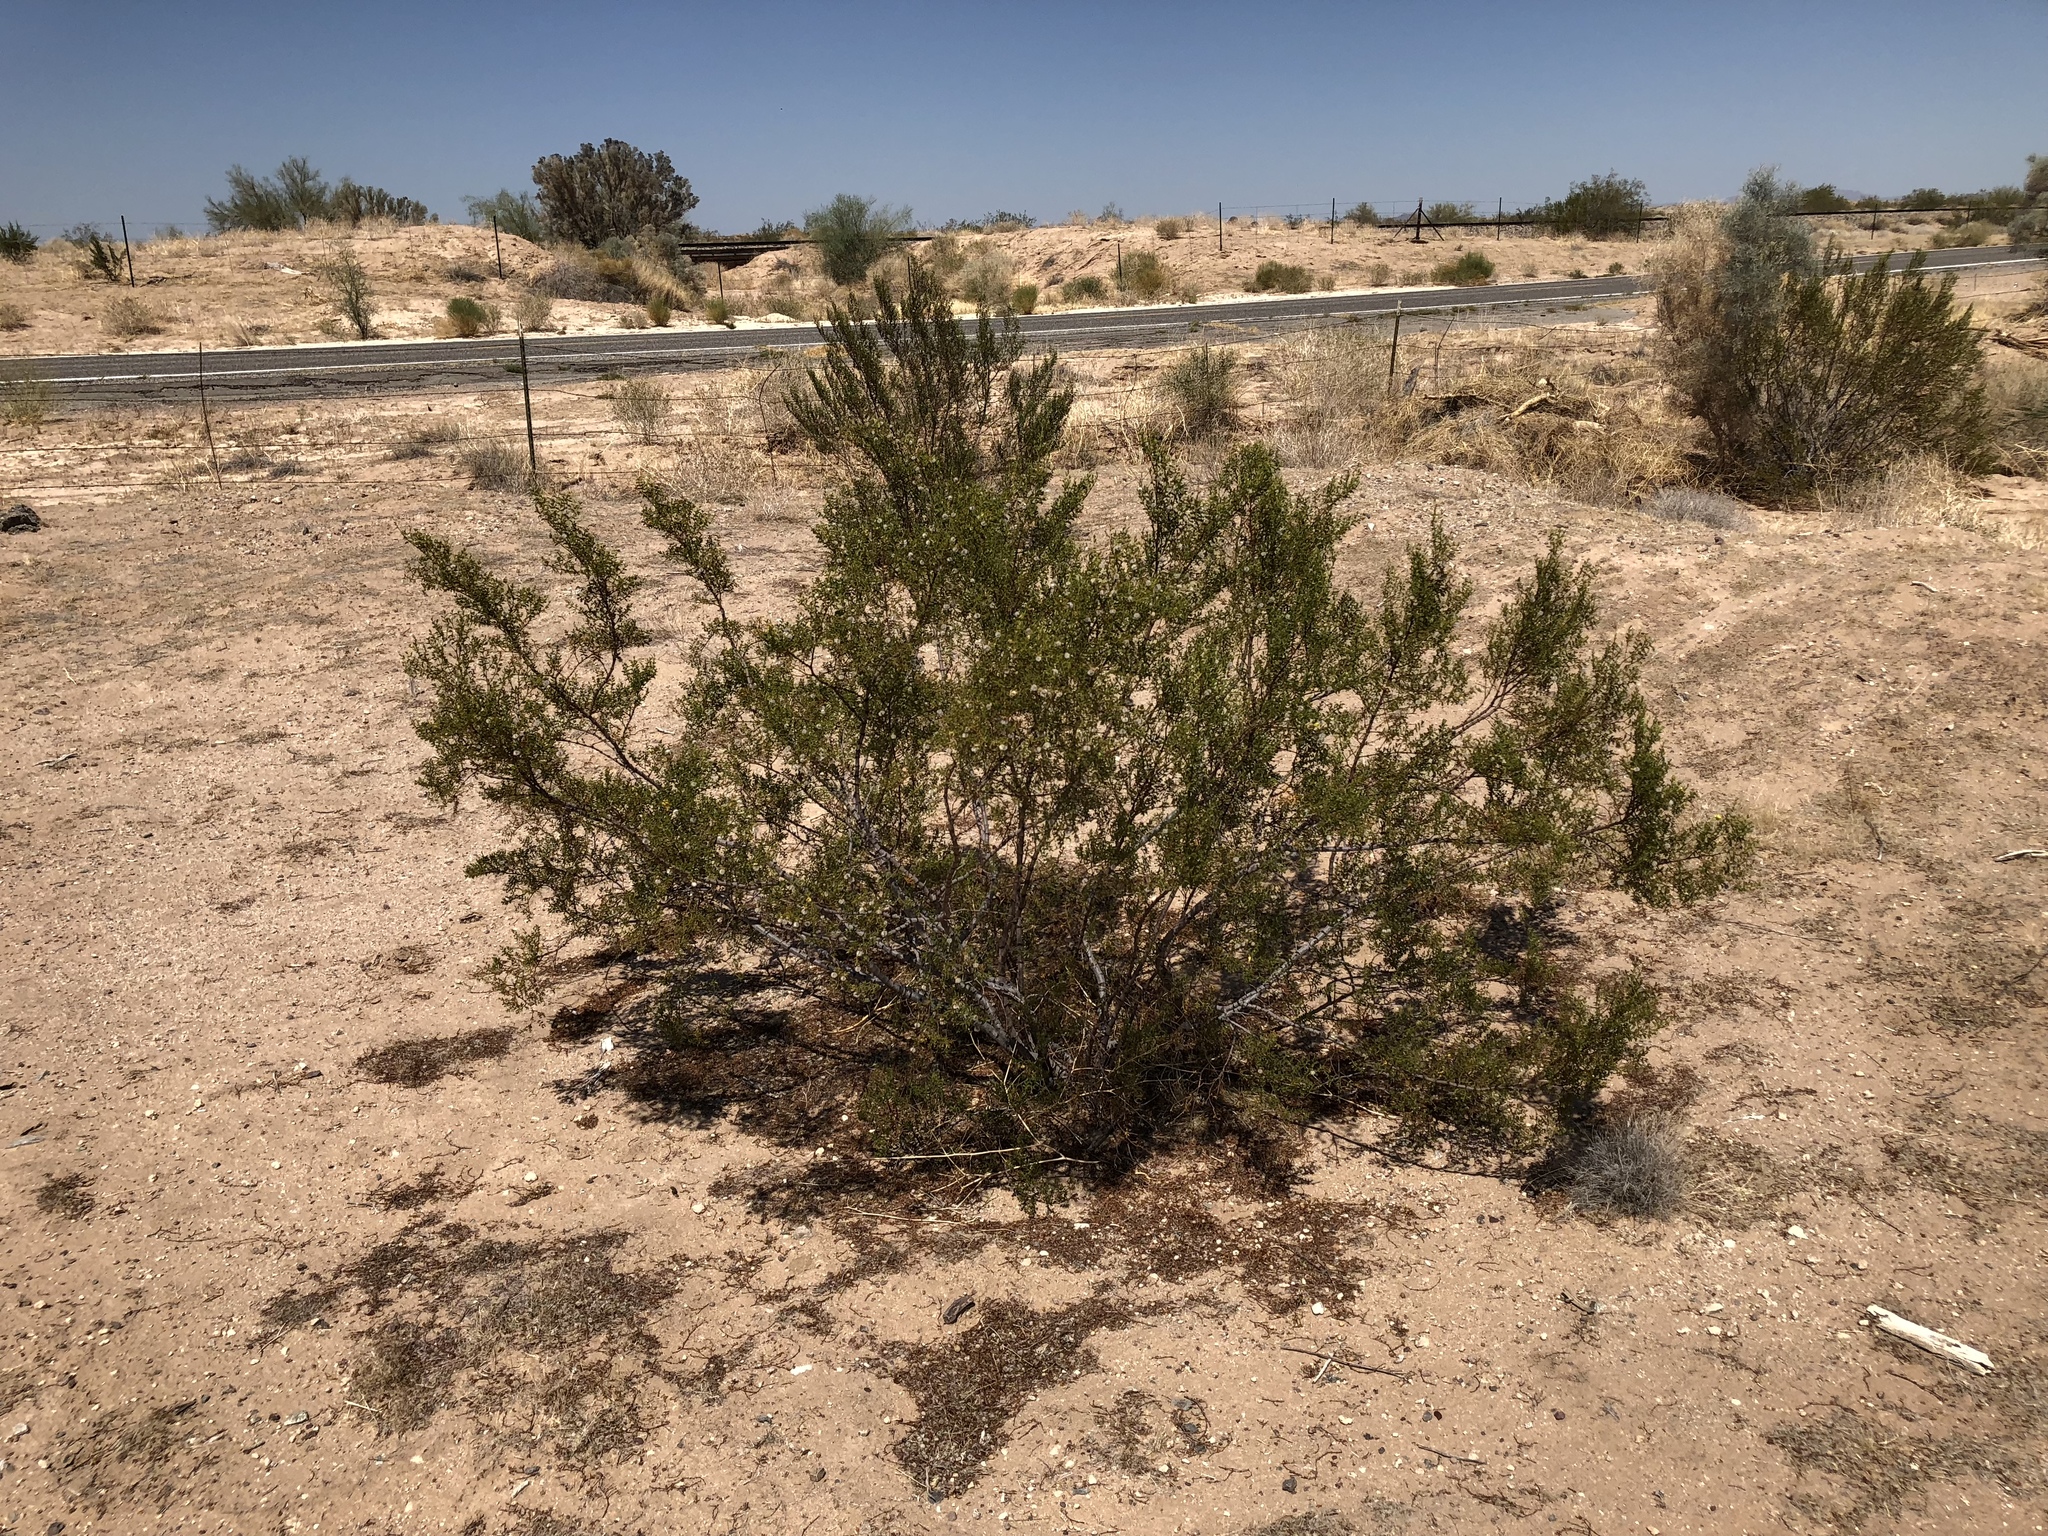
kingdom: Plantae
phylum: Tracheophyta
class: Magnoliopsida
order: Zygophyllales
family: Zygophyllaceae
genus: Larrea
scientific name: Larrea tridentata
